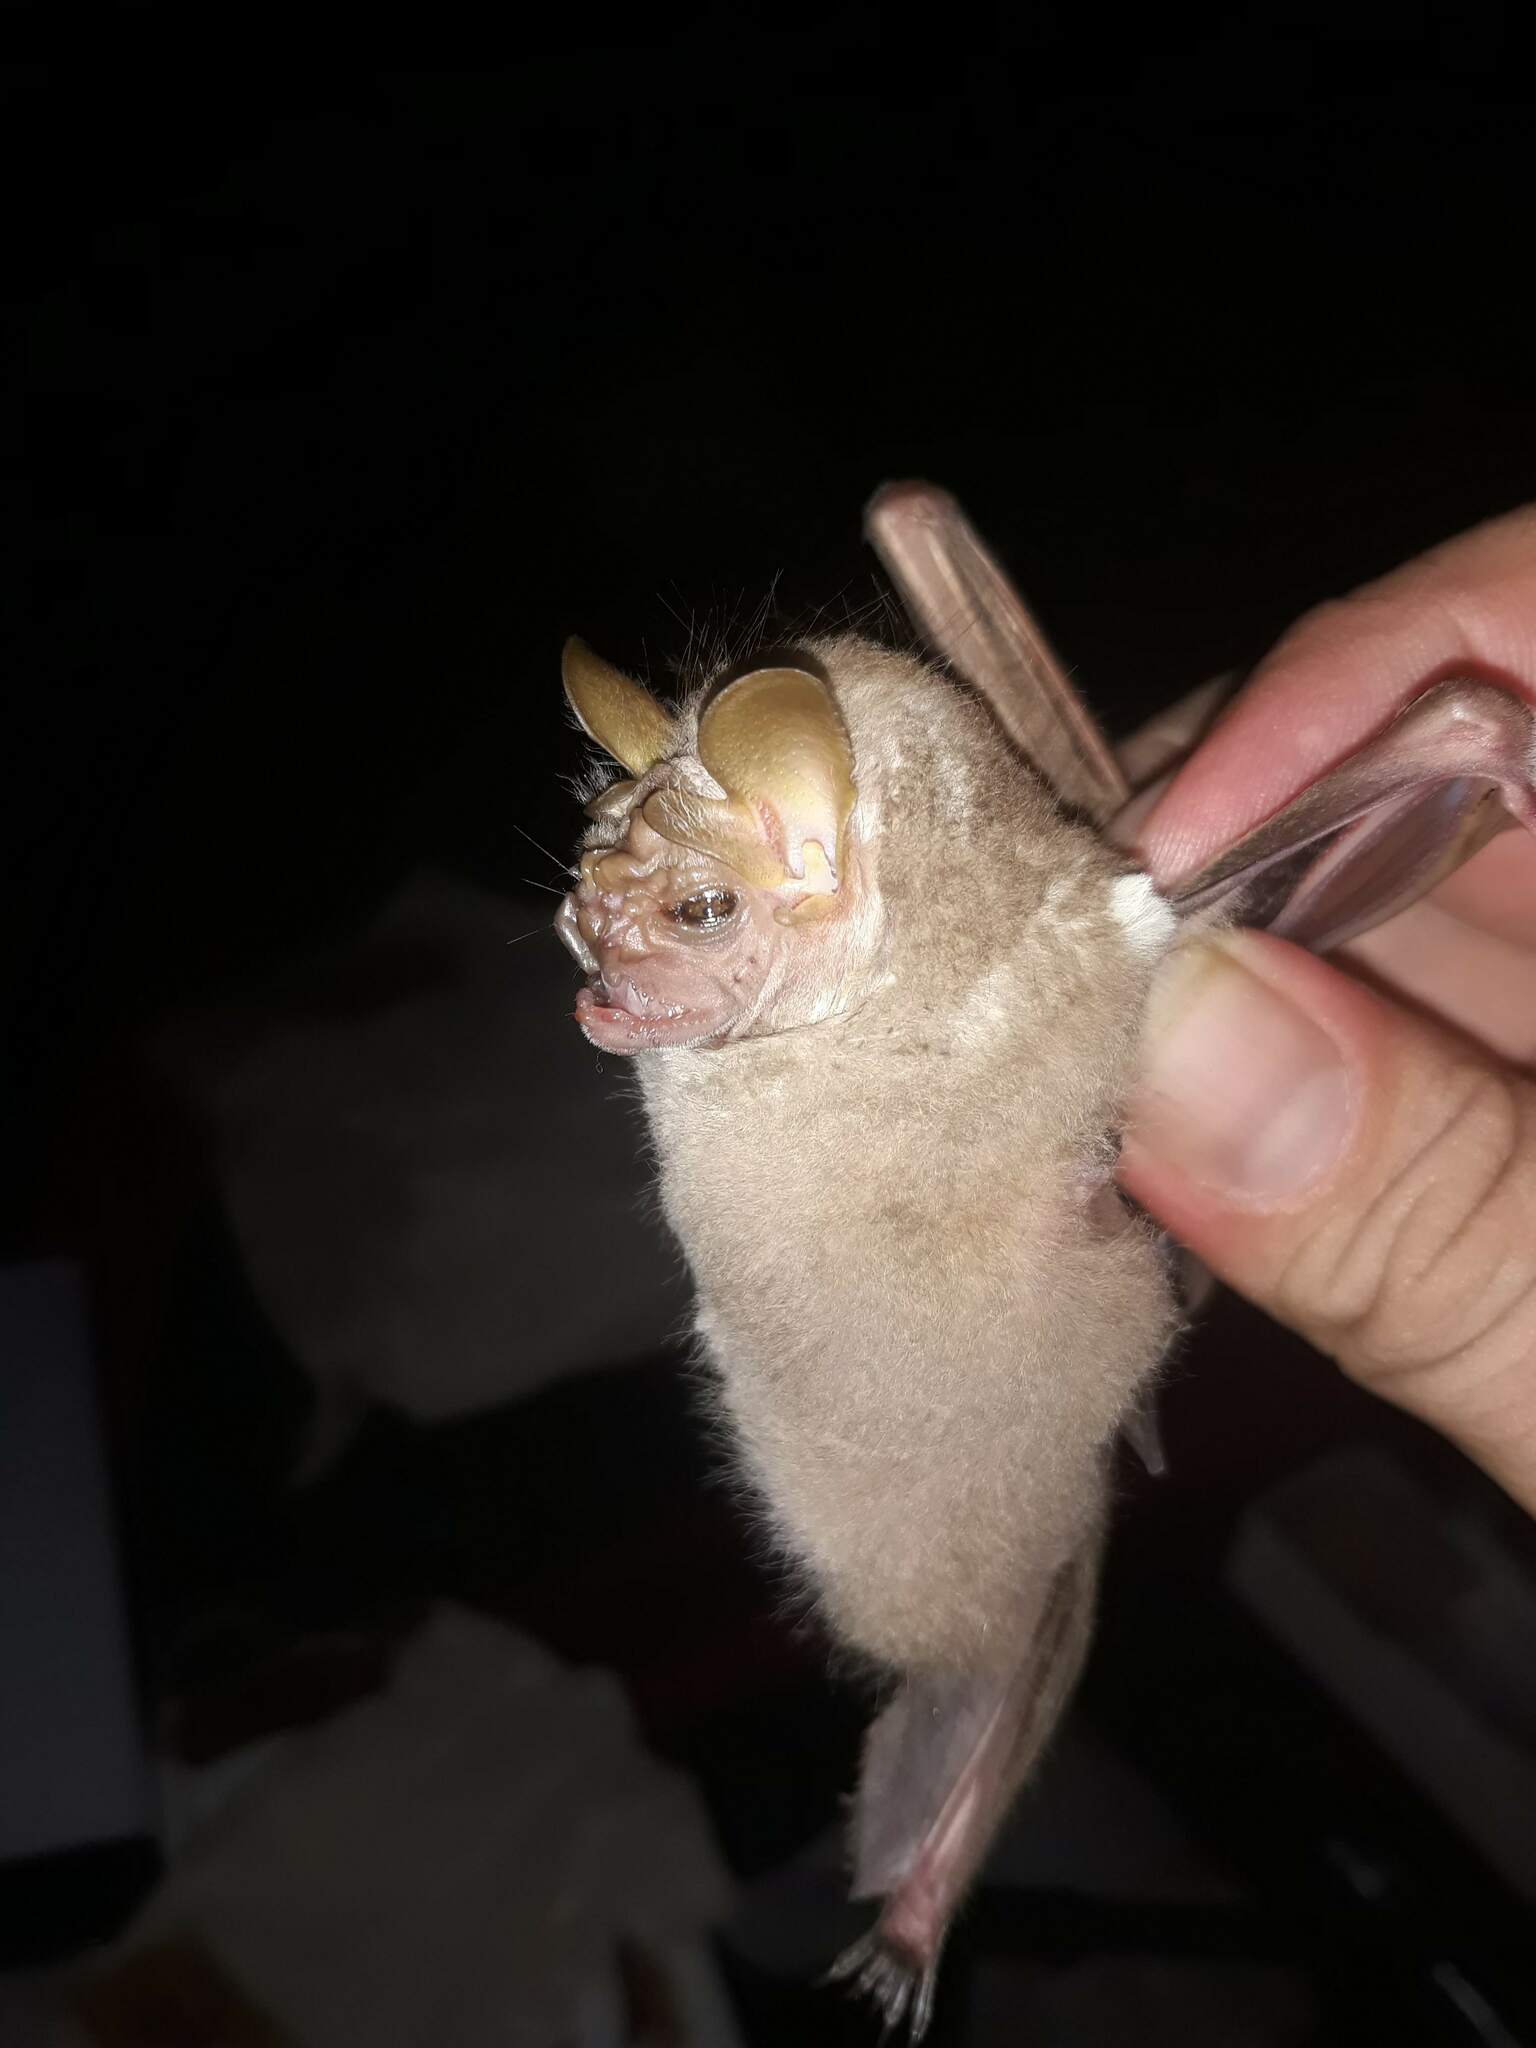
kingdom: Animalia
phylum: Chordata
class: Mammalia
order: Chiroptera
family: Phyllostomidae
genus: Centurio
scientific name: Centurio senex
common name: Wrinkle-faced bat
